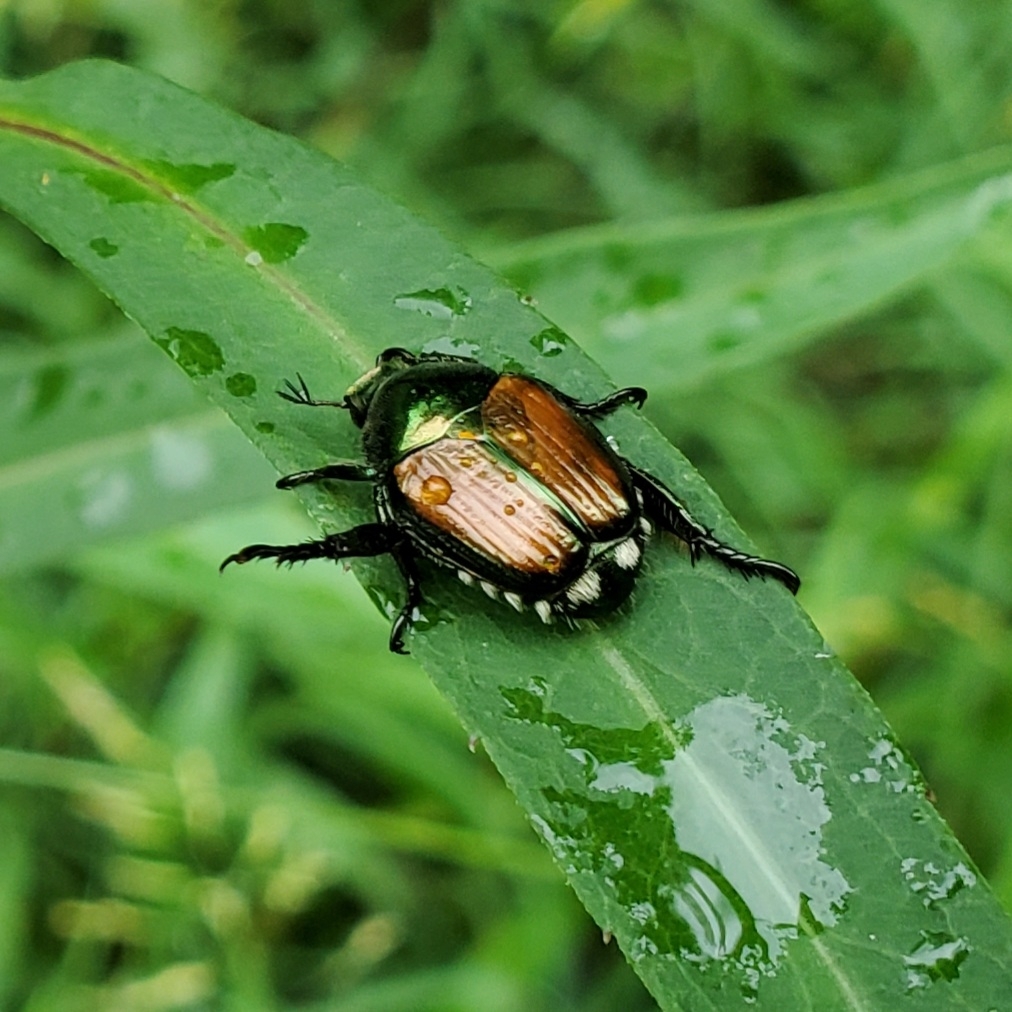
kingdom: Animalia
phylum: Arthropoda
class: Insecta
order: Coleoptera
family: Scarabaeidae
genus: Popillia
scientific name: Popillia japonica
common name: Japanese beetle
